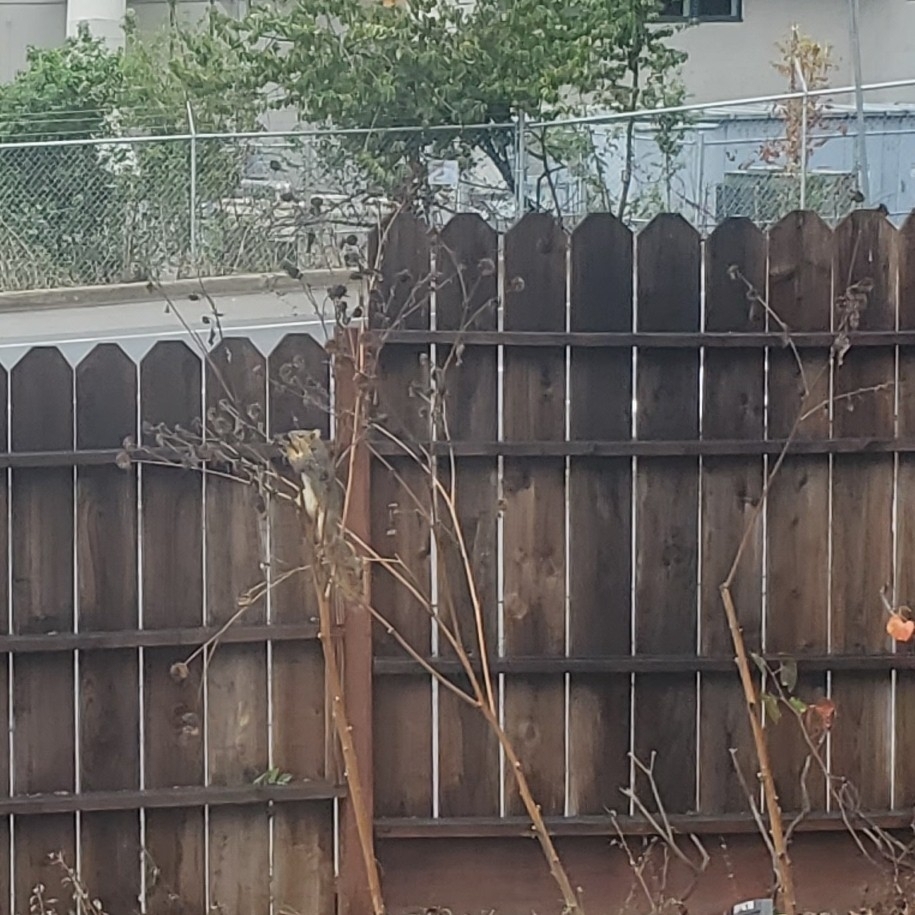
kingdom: Animalia
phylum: Chordata
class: Mammalia
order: Rodentia
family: Sciuridae
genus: Sciurus
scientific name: Sciurus niger
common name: Fox squirrel
